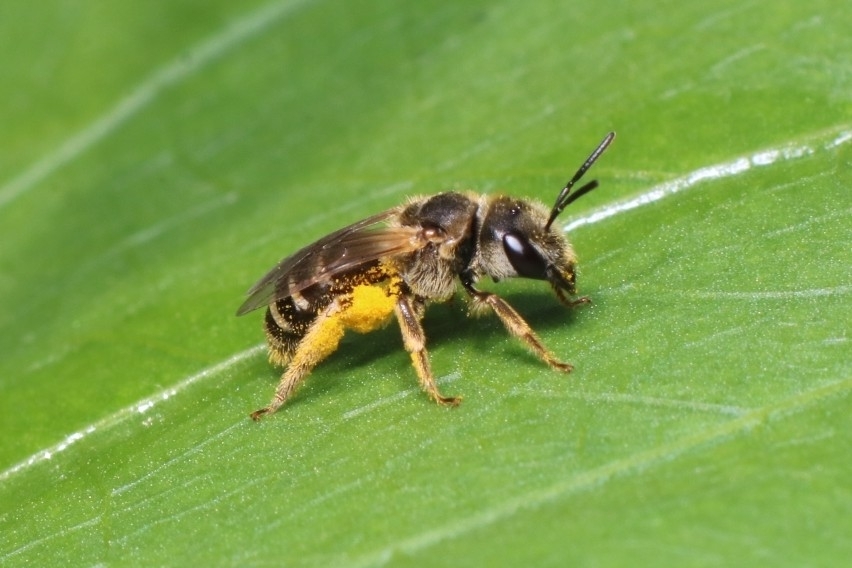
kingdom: Animalia
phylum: Arthropoda
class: Insecta
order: Hymenoptera
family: Halictidae
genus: Halictus
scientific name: Halictus ligatus
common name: Ligated furrow bee
